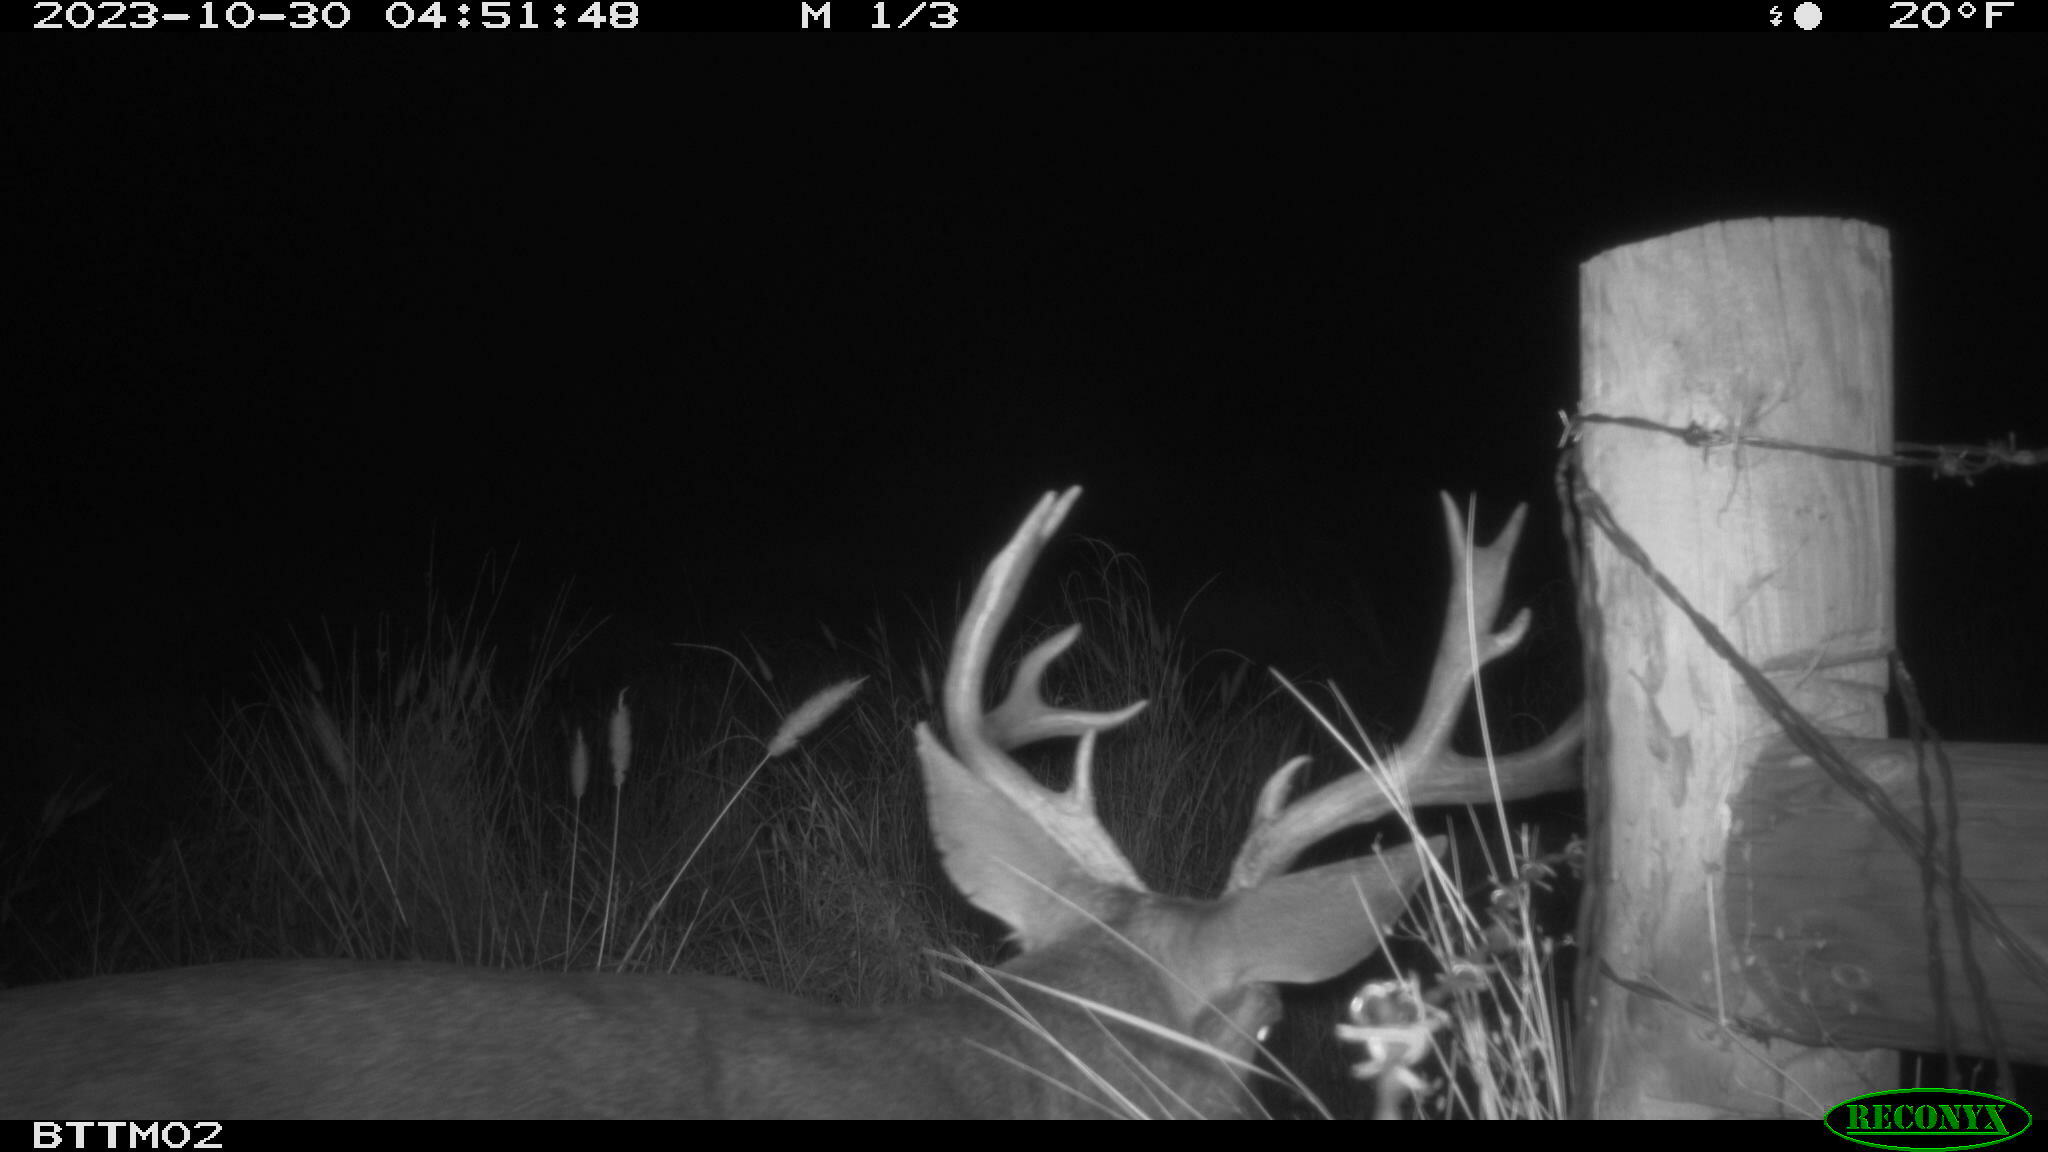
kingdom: Animalia
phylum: Chordata
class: Mammalia
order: Artiodactyla
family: Cervidae
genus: Odocoileus
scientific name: Odocoileus hemionus
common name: Mule deer
